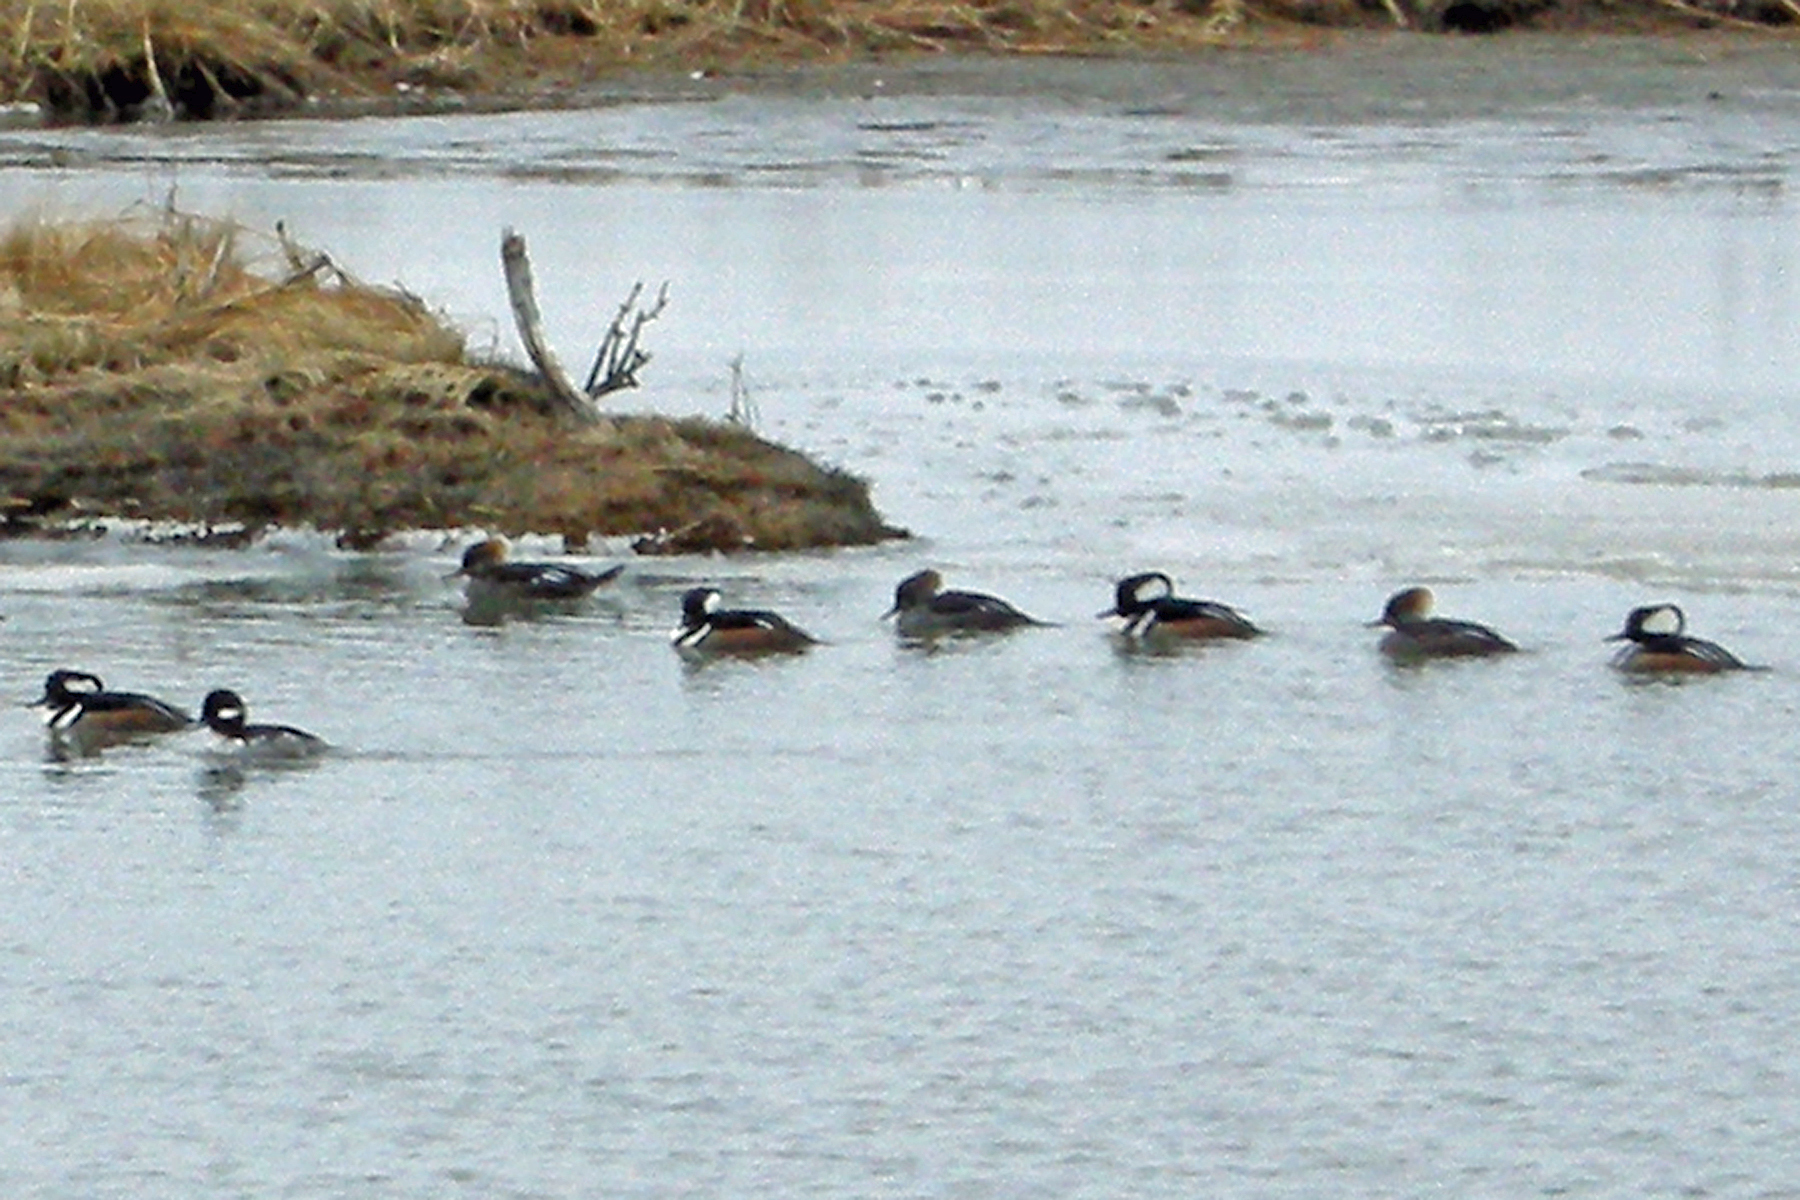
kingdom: Animalia
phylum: Chordata
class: Aves
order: Anseriformes
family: Anatidae
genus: Lophodytes
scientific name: Lophodytes cucullatus
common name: Hooded merganser
